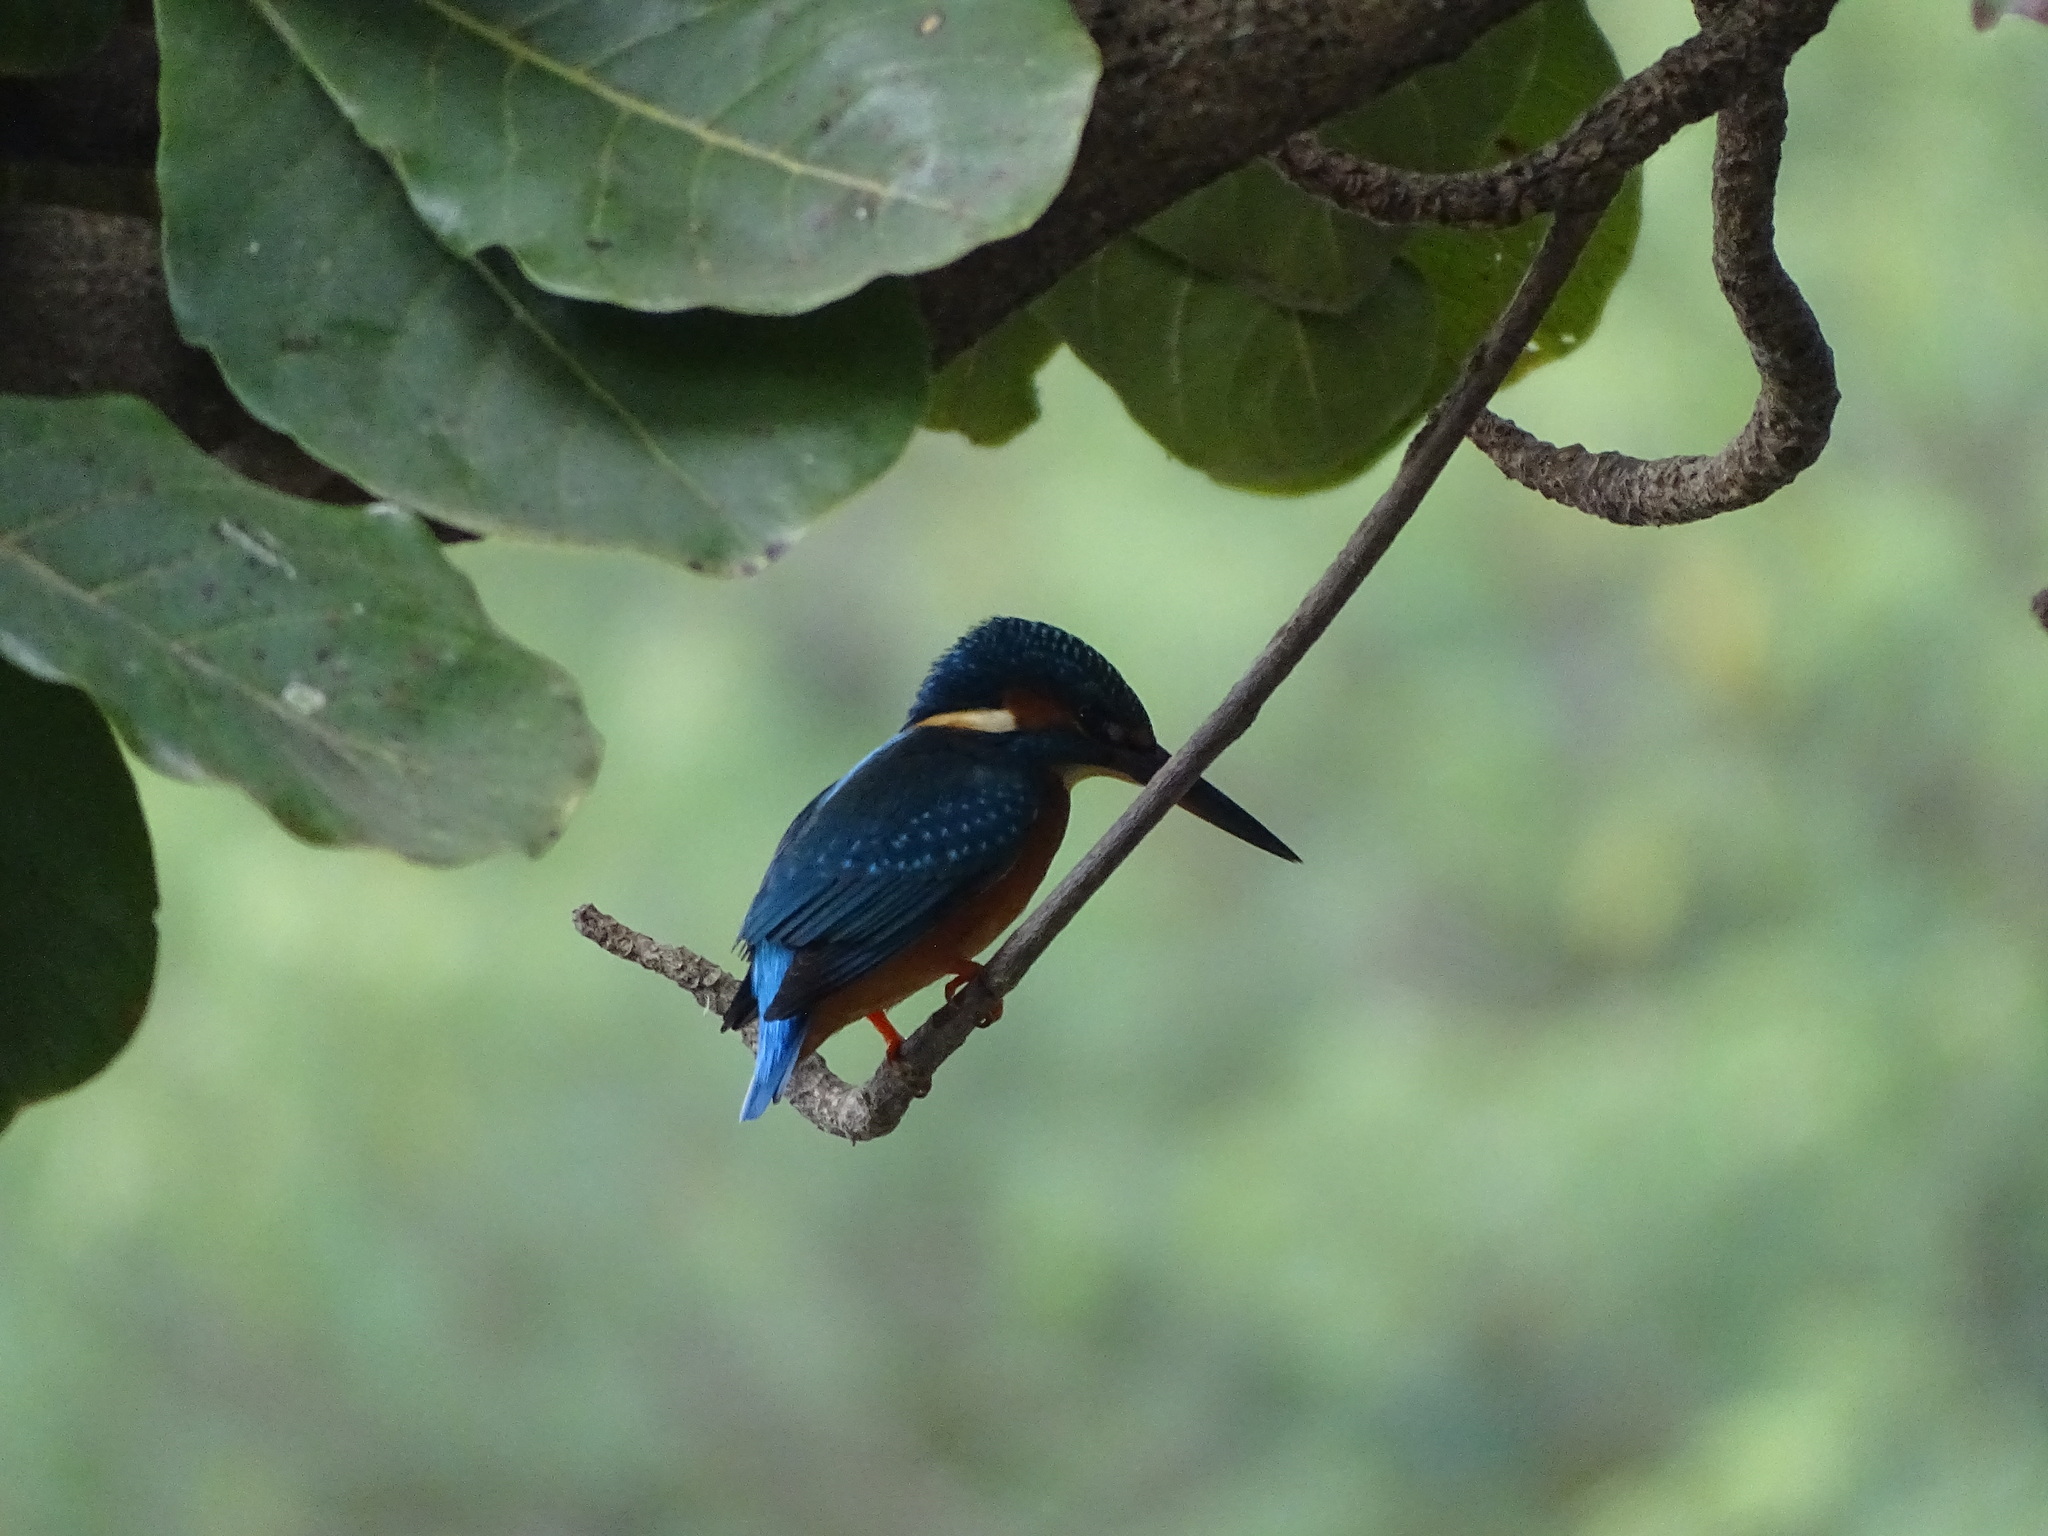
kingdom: Animalia
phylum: Chordata
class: Aves
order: Coraciiformes
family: Alcedinidae
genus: Alcedo
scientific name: Alcedo atthis
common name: Common kingfisher
